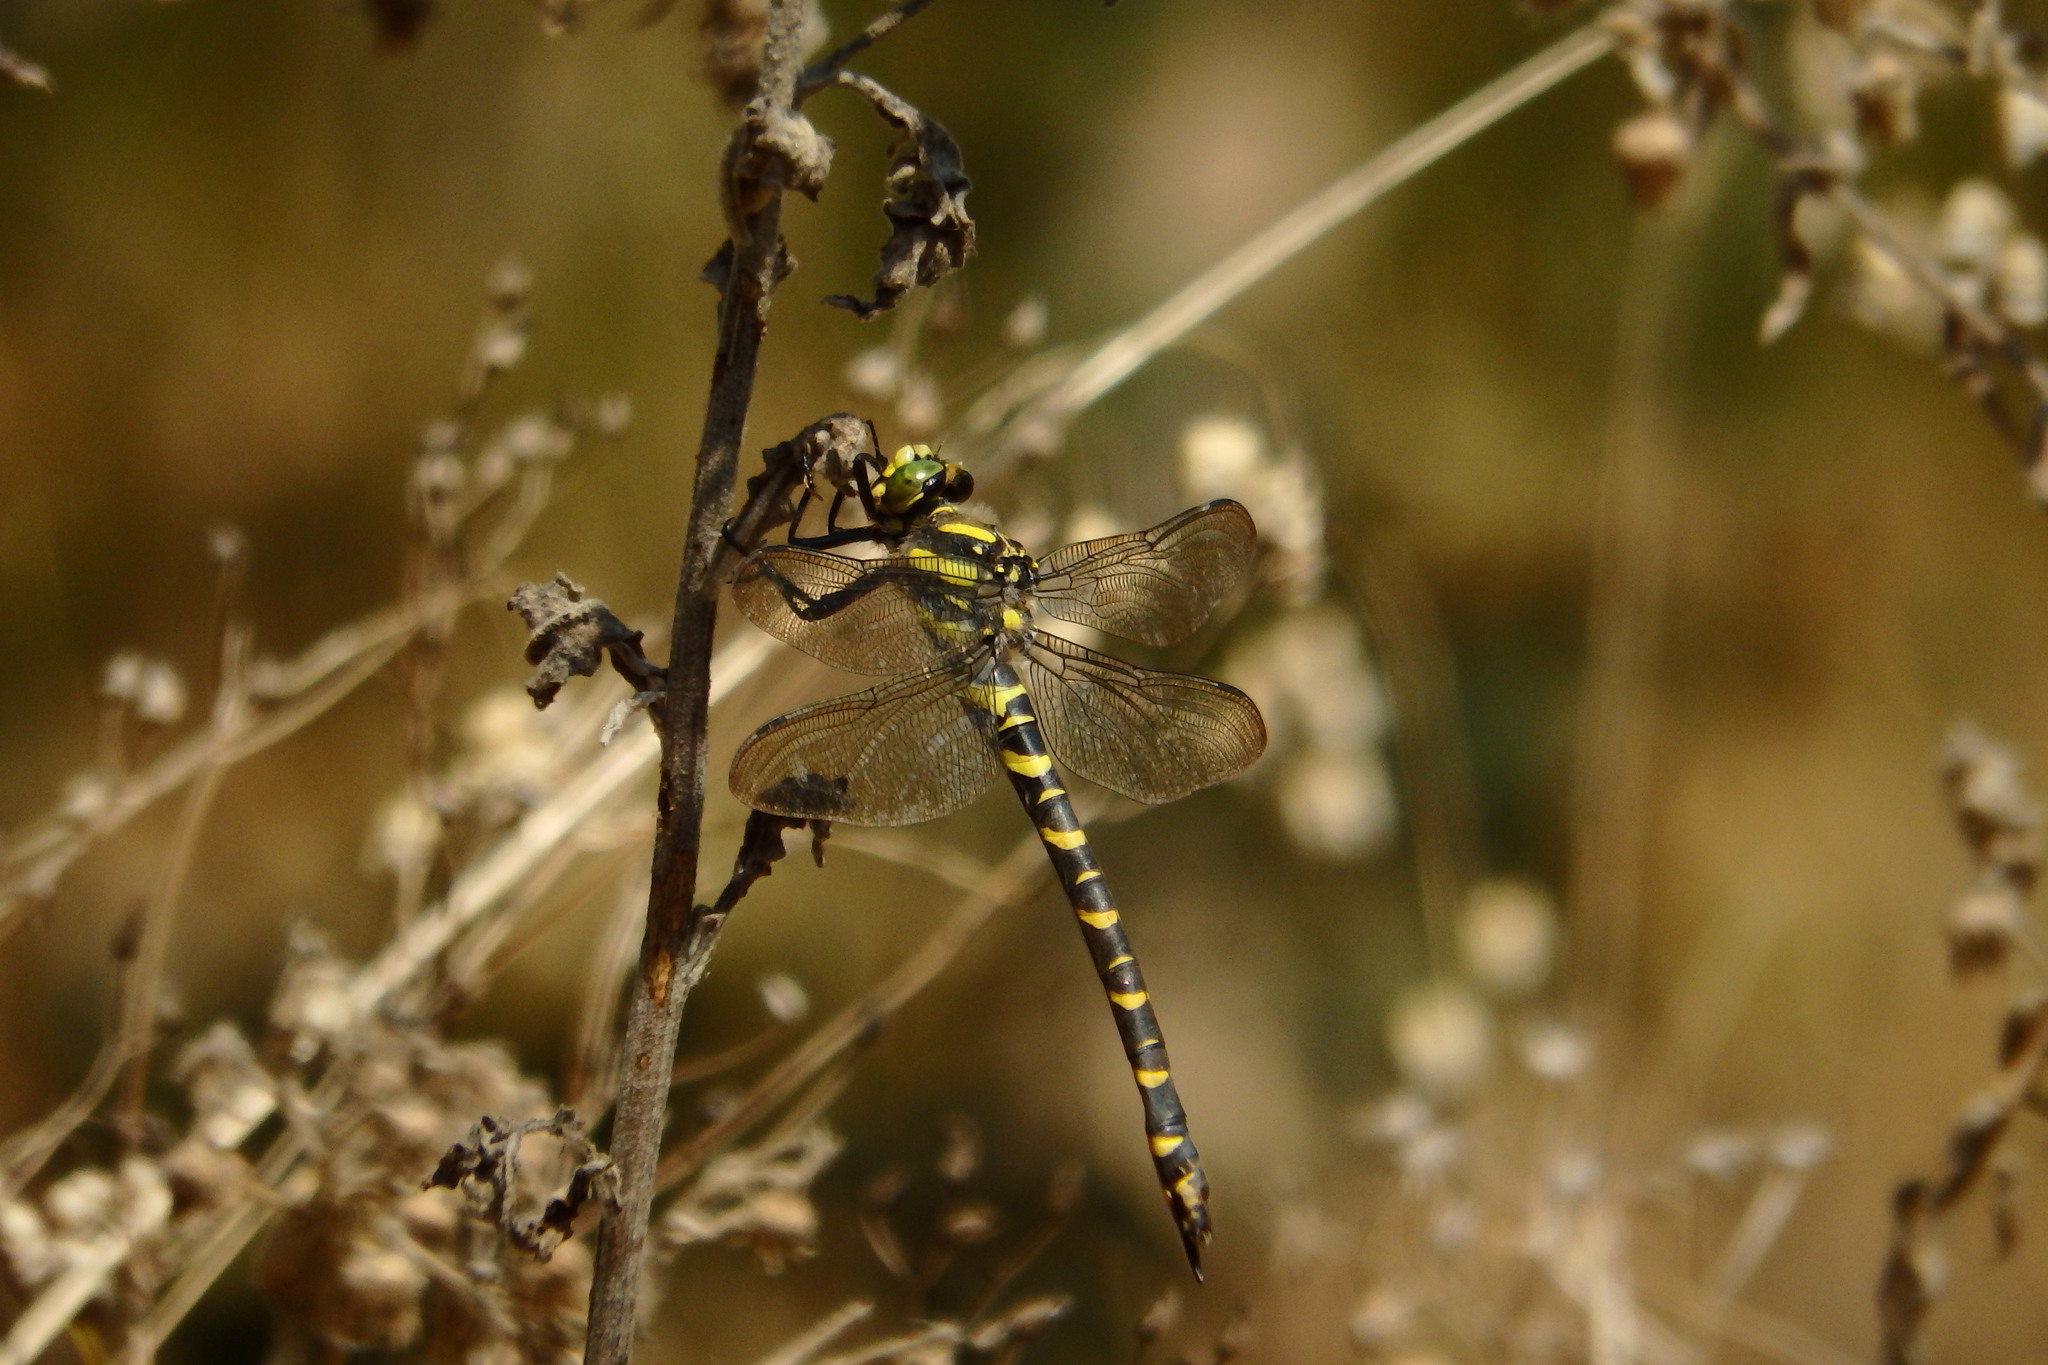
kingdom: Animalia
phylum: Arthropoda
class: Insecta
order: Odonata
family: Cordulegastridae
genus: Cordulegaster
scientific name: Cordulegaster boltonii
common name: Golden-ringed dragonfly
